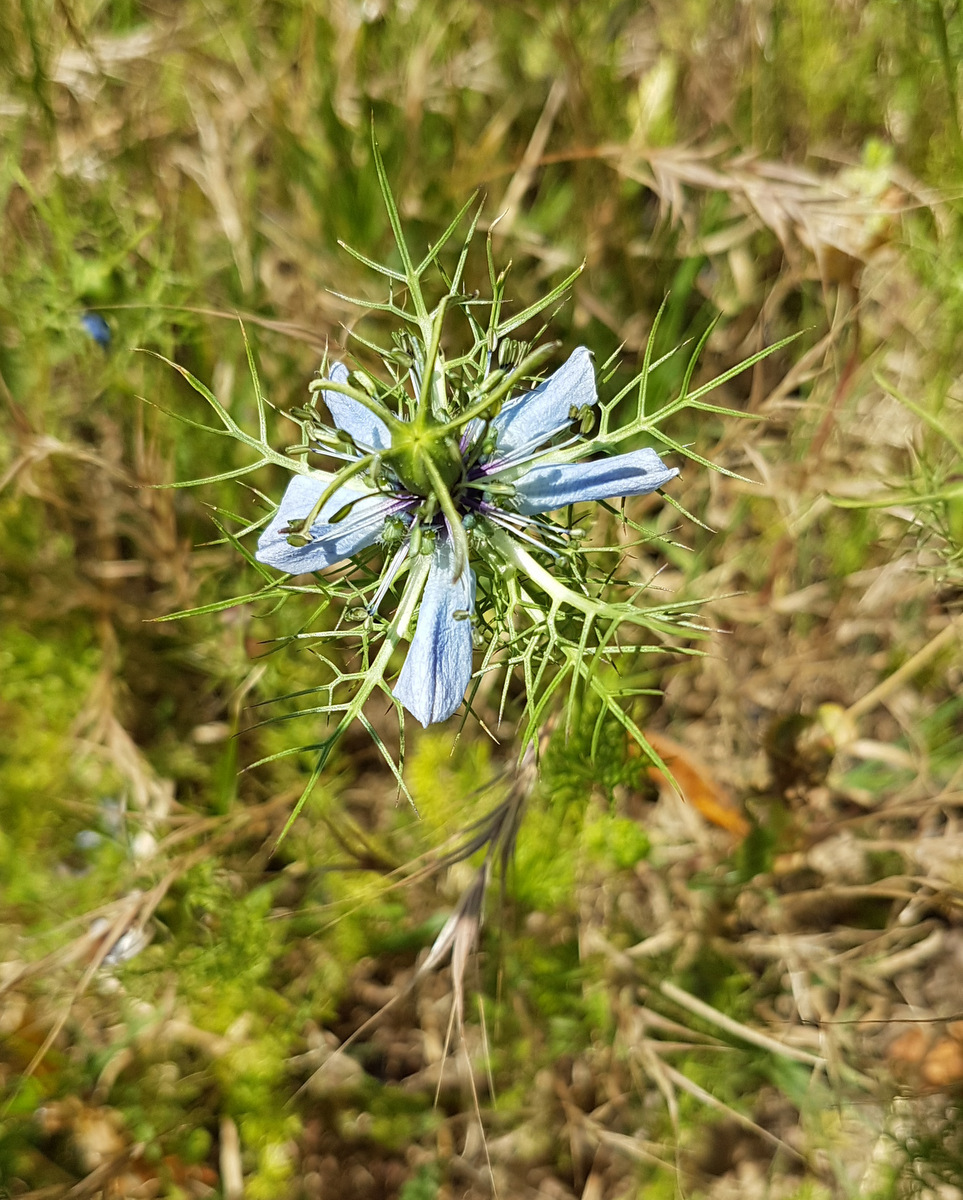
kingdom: Plantae
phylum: Tracheophyta
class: Magnoliopsida
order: Ranunculales
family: Ranunculaceae
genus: Nigella
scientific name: Nigella damascena
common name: Love-in-a-mist
